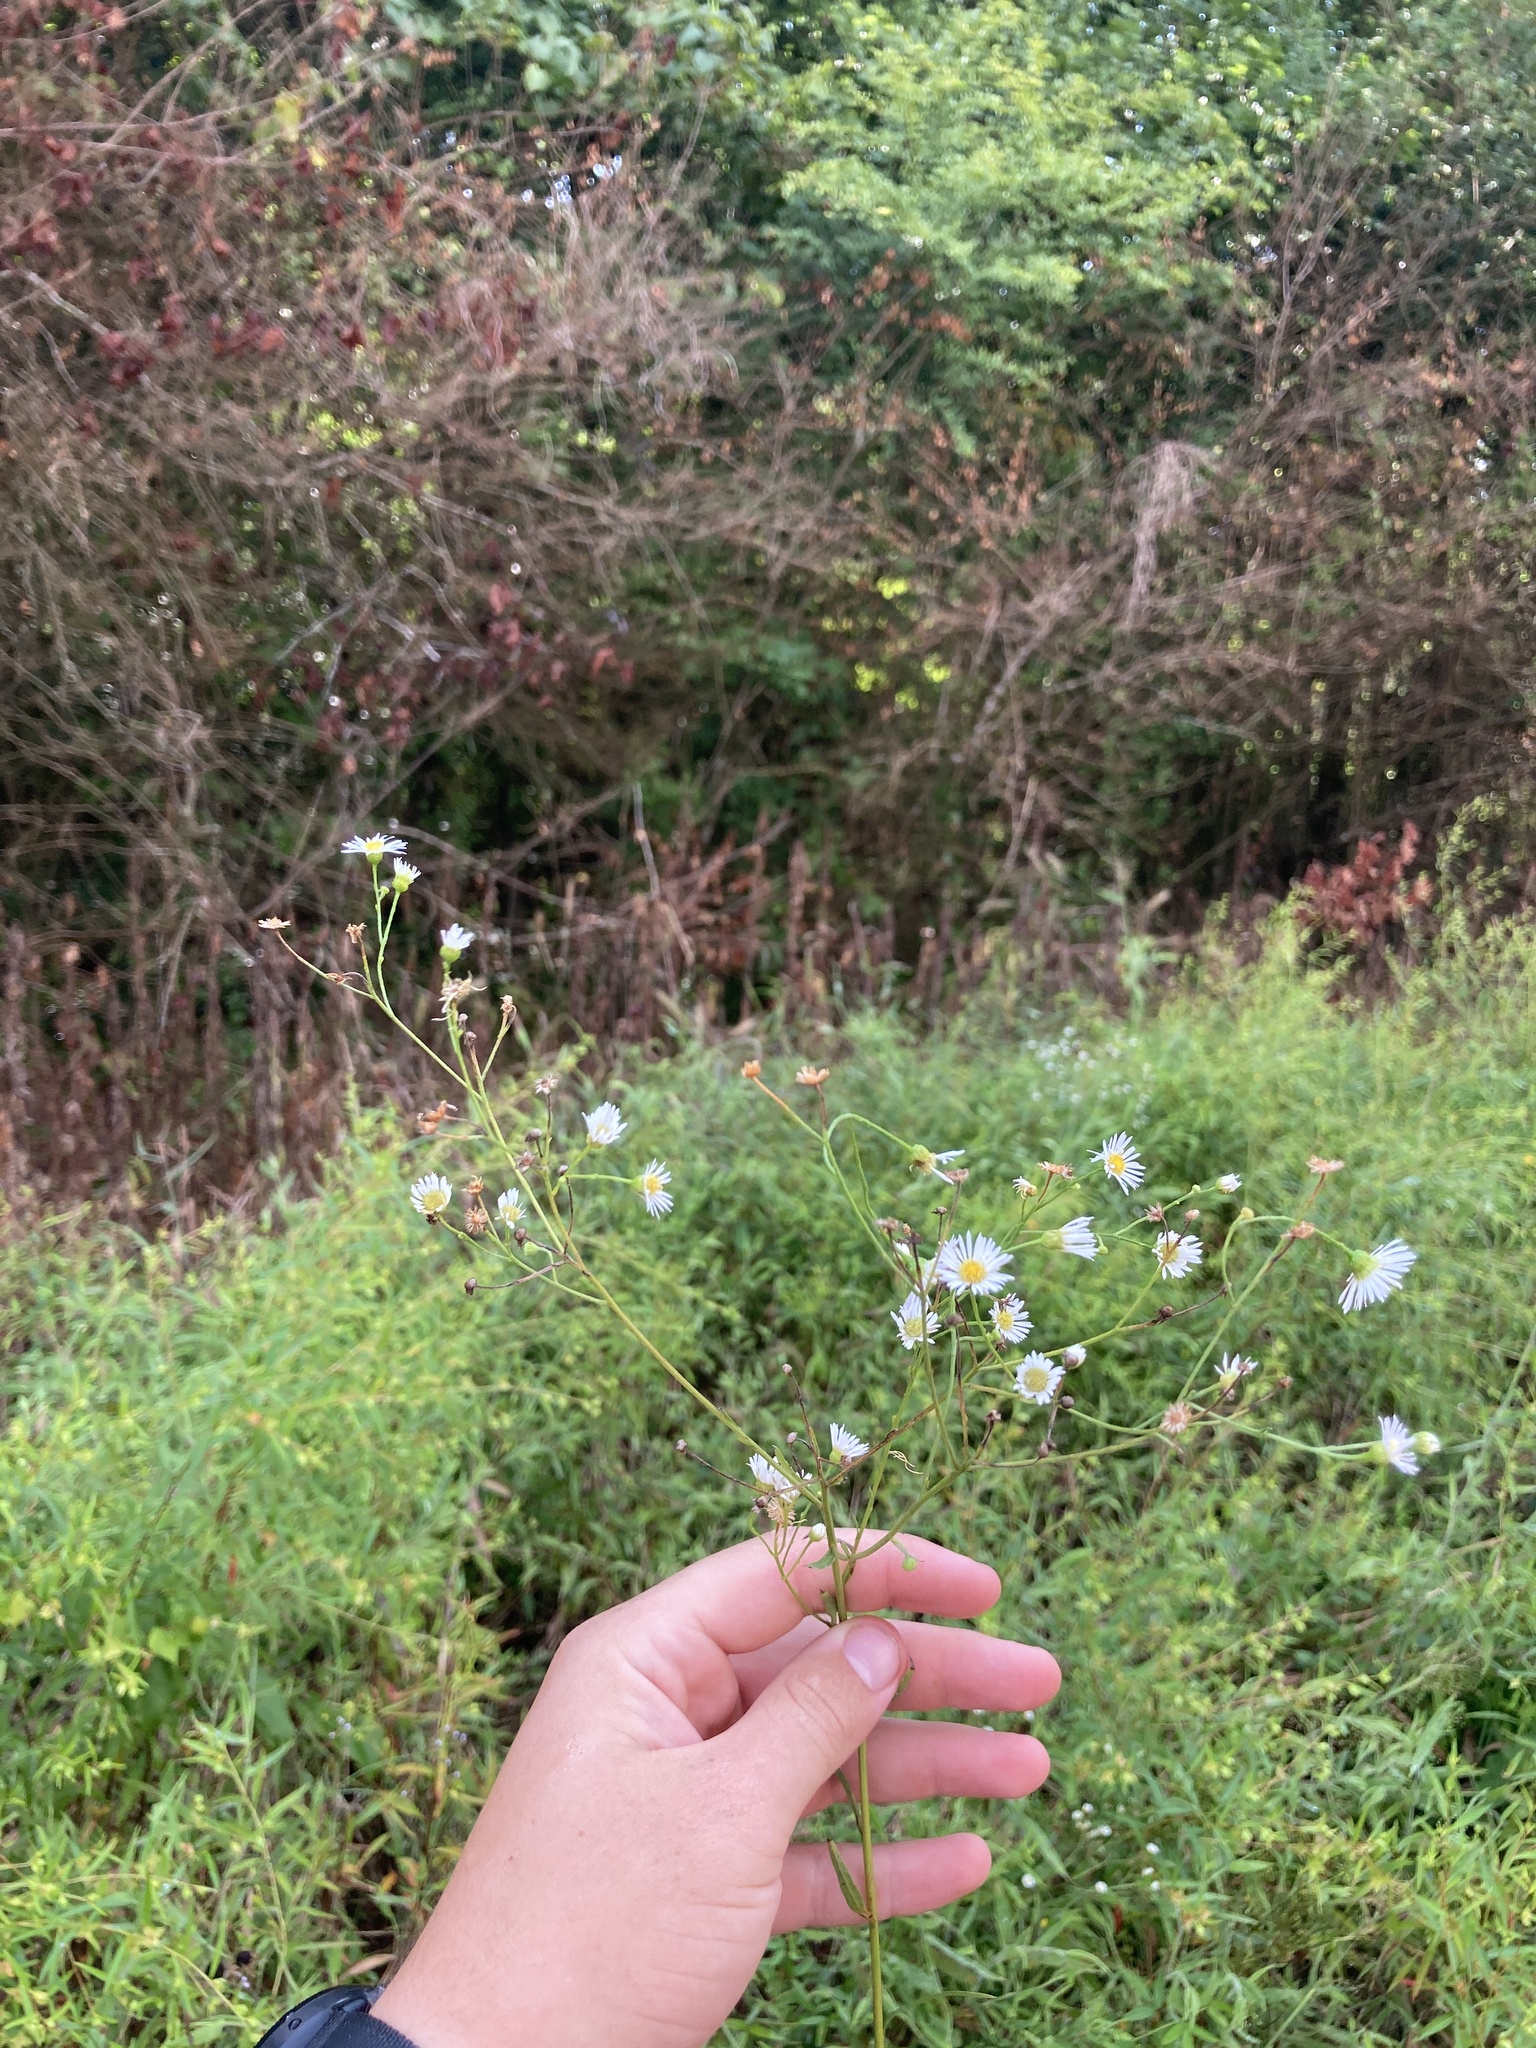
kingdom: Plantae
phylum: Tracheophyta
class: Magnoliopsida
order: Asterales
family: Asteraceae
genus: Erigeron
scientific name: Erigeron strigosus
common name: Common eastern fleabane
